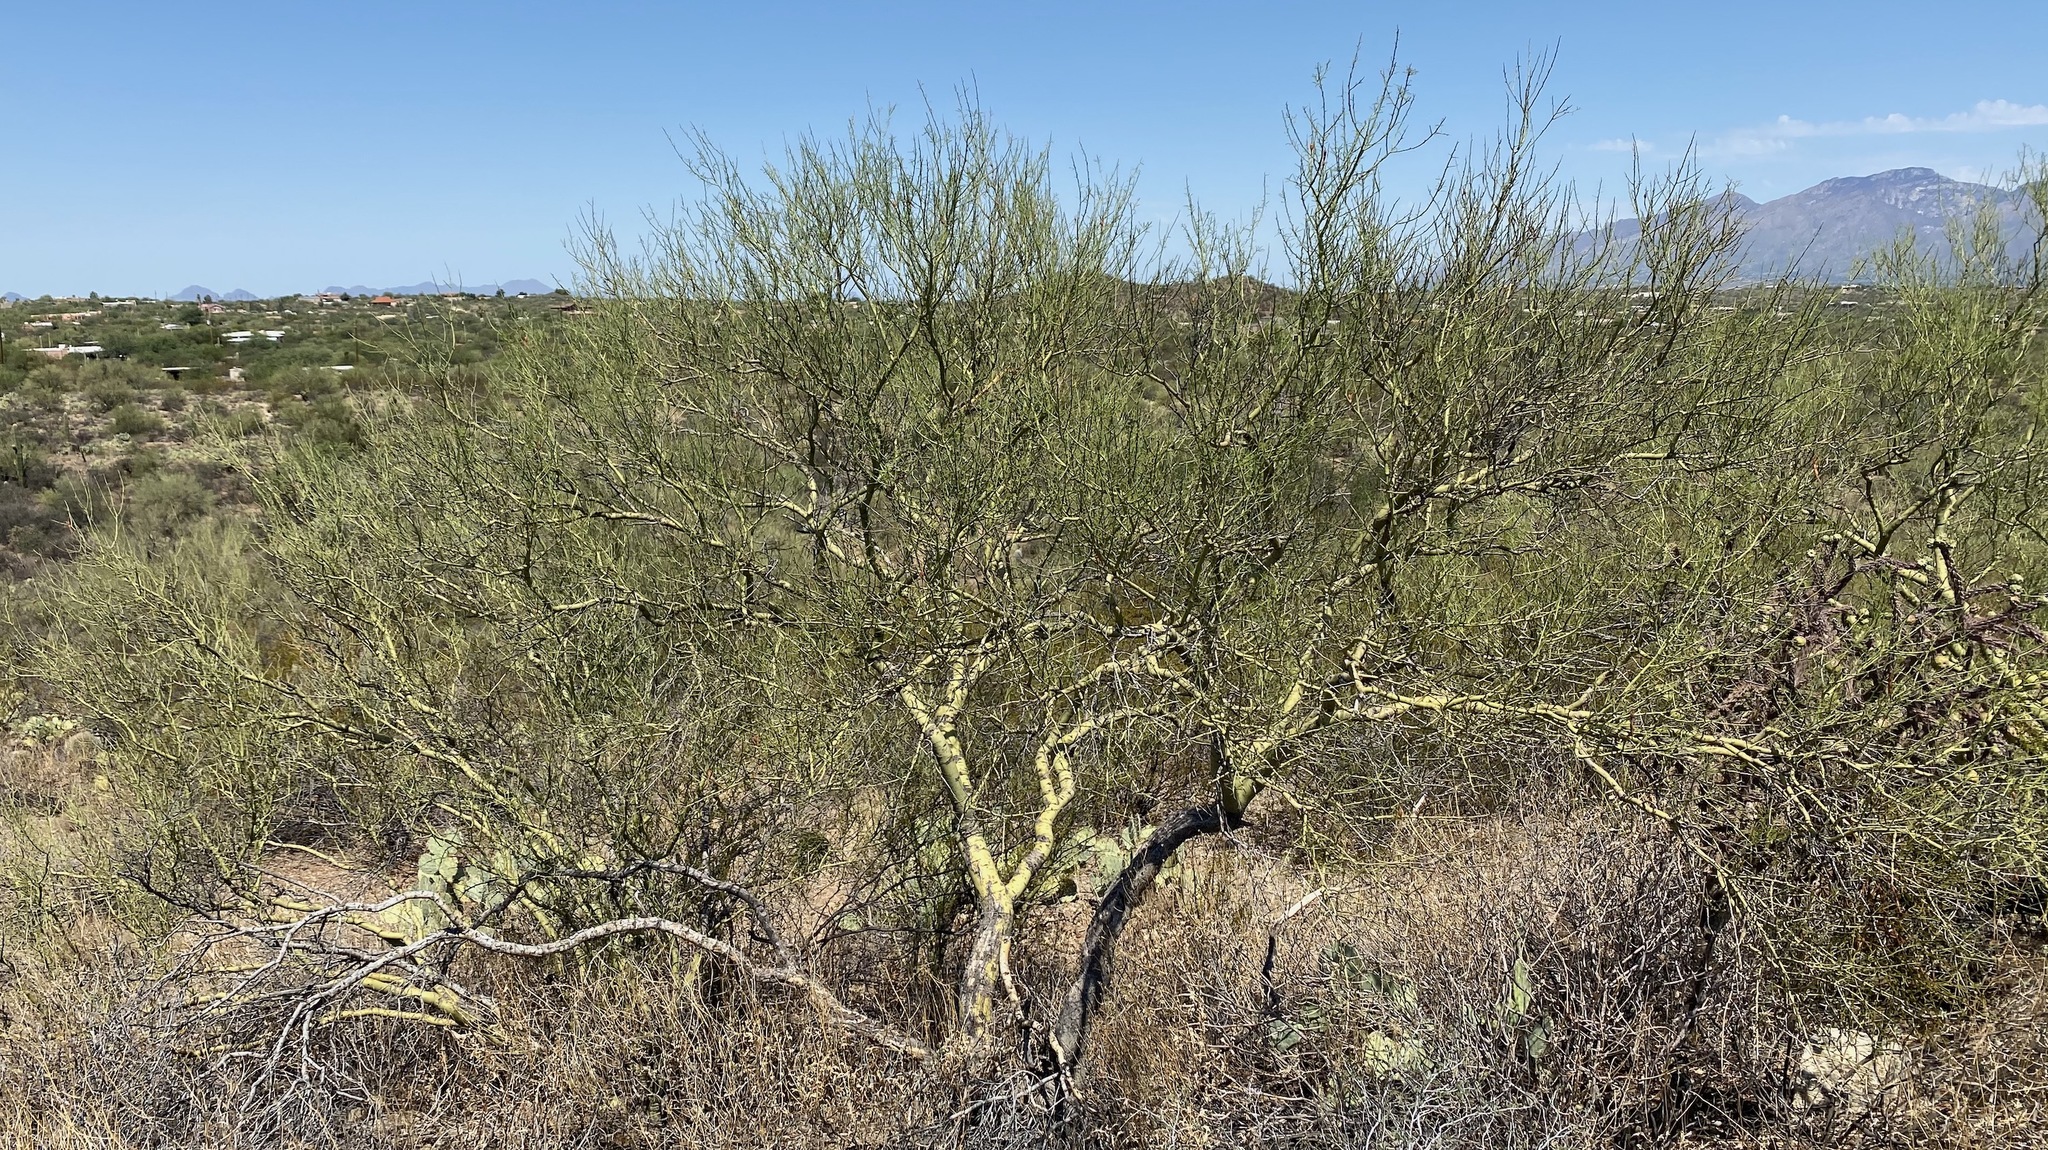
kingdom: Plantae
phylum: Tracheophyta
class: Magnoliopsida
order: Fabales
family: Fabaceae
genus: Parkinsonia
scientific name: Parkinsonia microphylla
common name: Yellow paloverde
